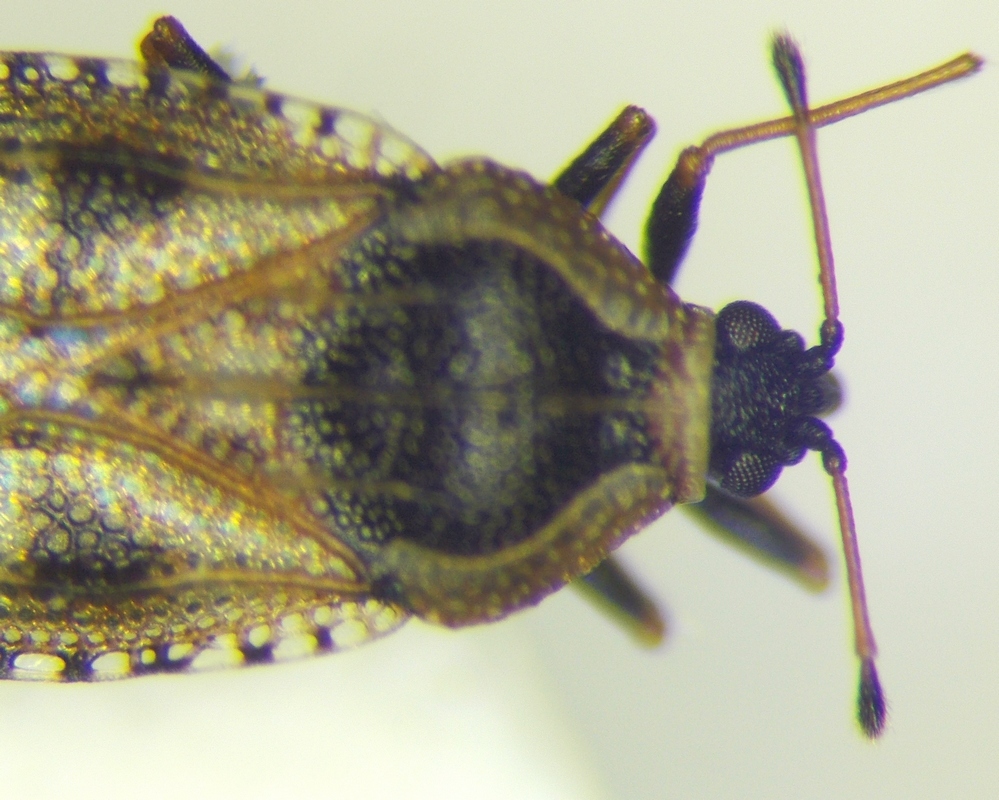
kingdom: Animalia
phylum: Arthropoda
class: Insecta
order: Hemiptera
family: Tingidae
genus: Dictyla
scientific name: Dictyla echii
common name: Lace bug
